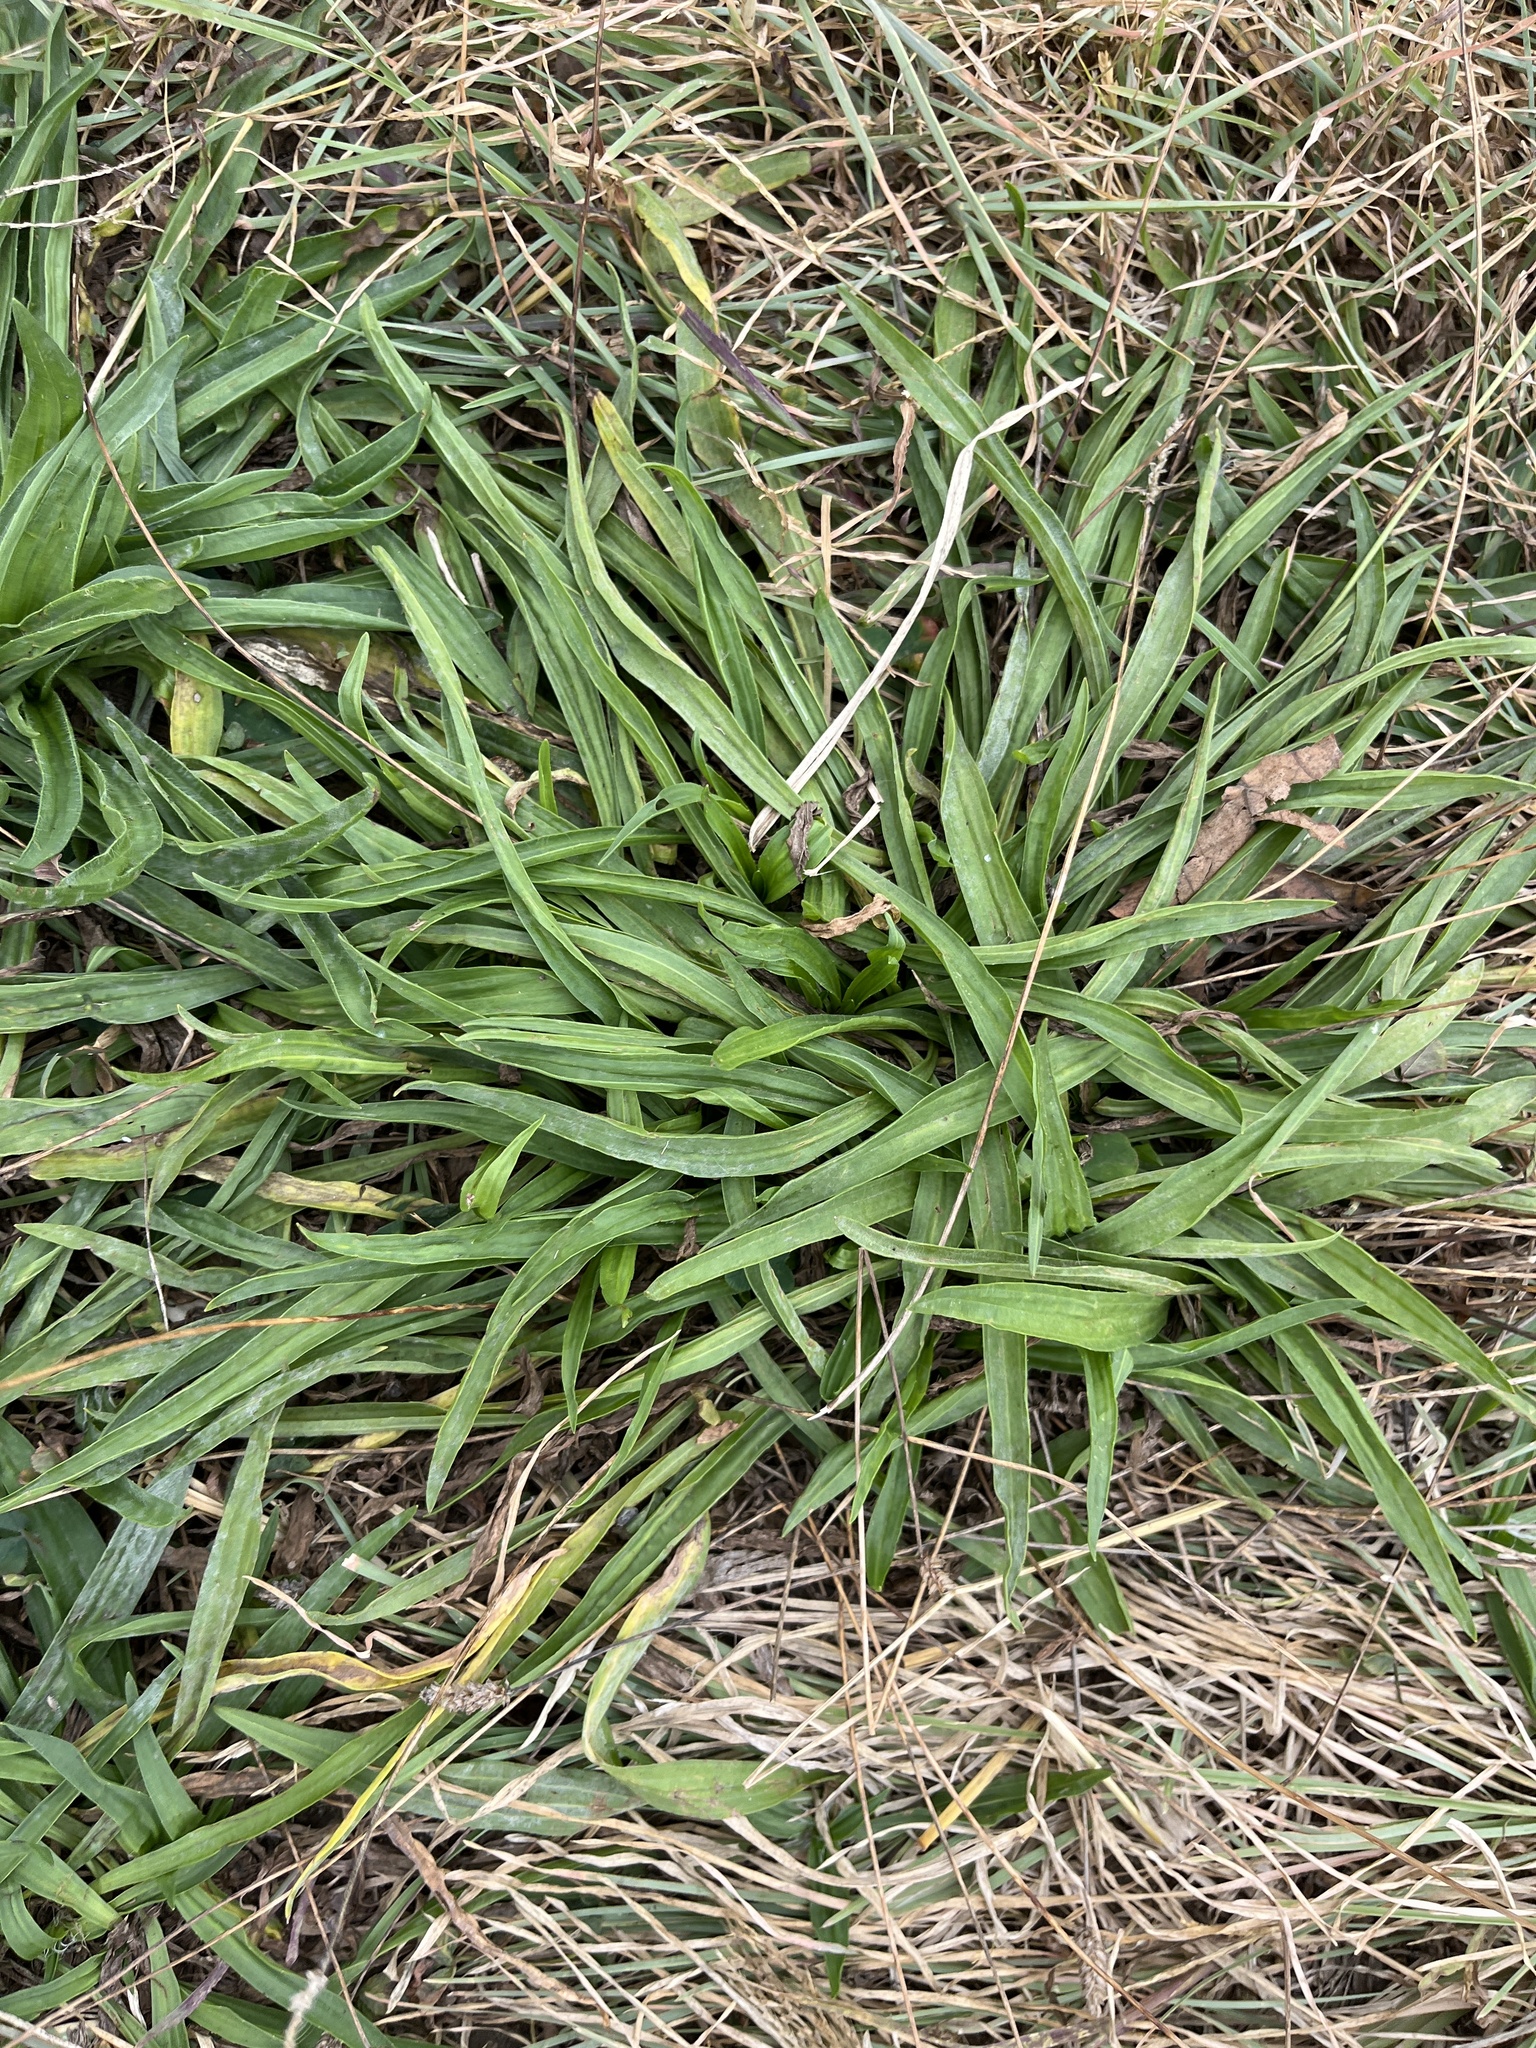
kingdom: Plantae
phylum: Tracheophyta
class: Magnoliopsida
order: Lamiales
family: Plantaginaceae
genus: Plantago
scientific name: Plantago lanceolata
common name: Ribwort plantain
